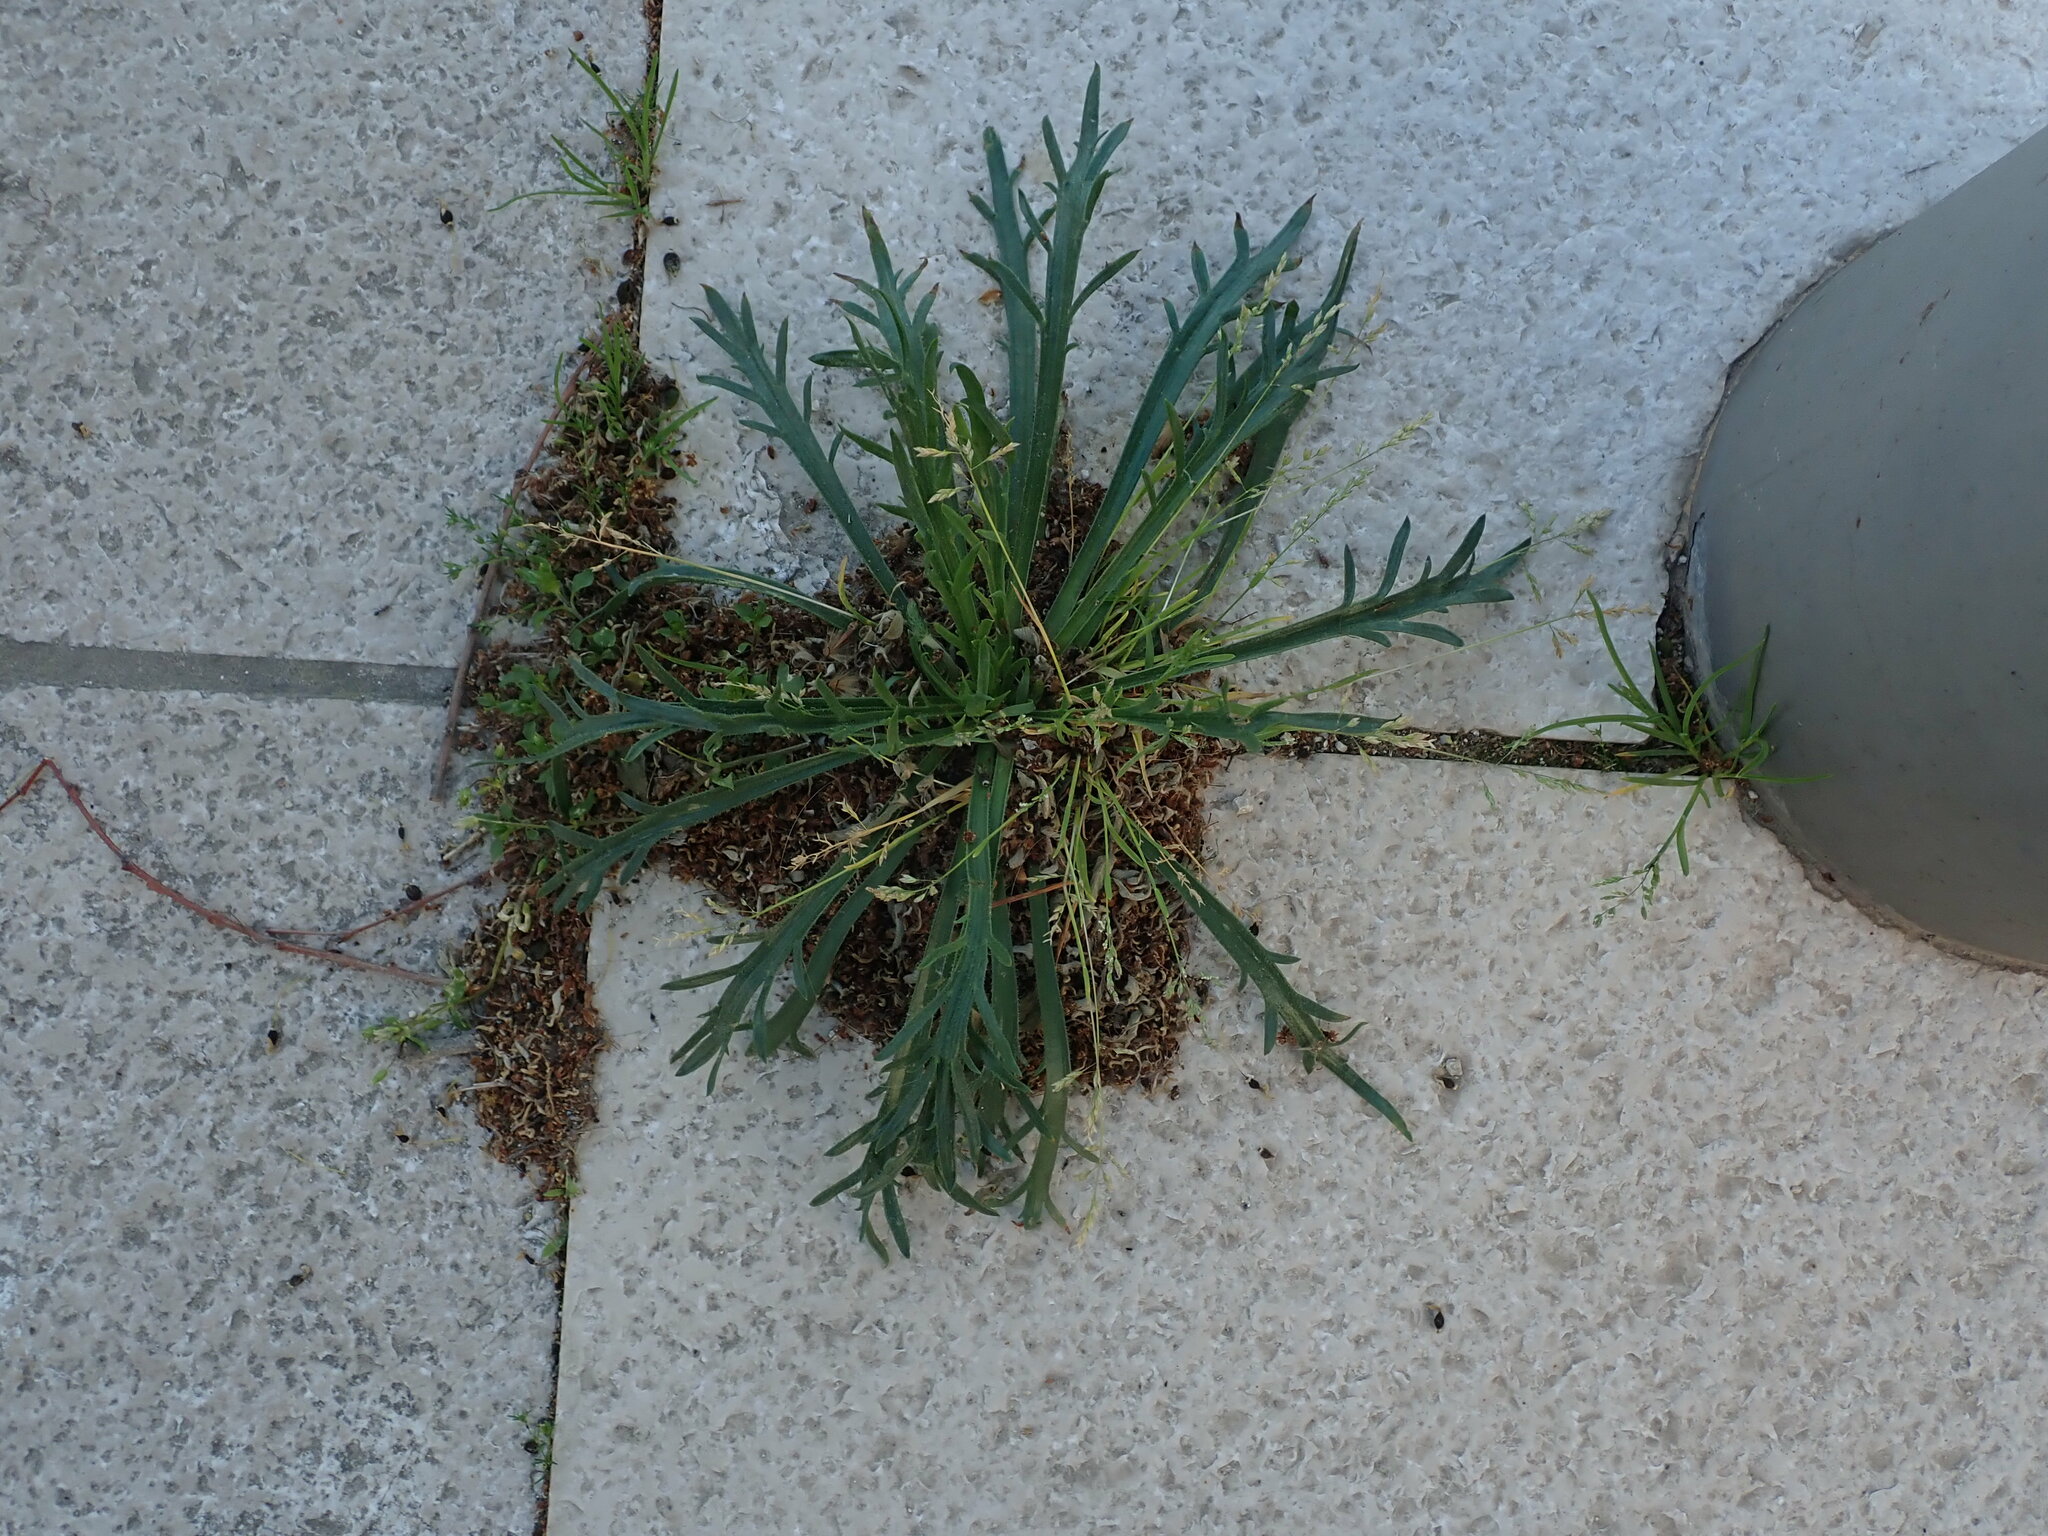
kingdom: Plantae
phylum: Tracheophyta
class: Magnoliopsida
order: Lamiales
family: Plantaginaceae
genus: Plantago
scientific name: Plantago coronopus
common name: Buck's-horn plantain
